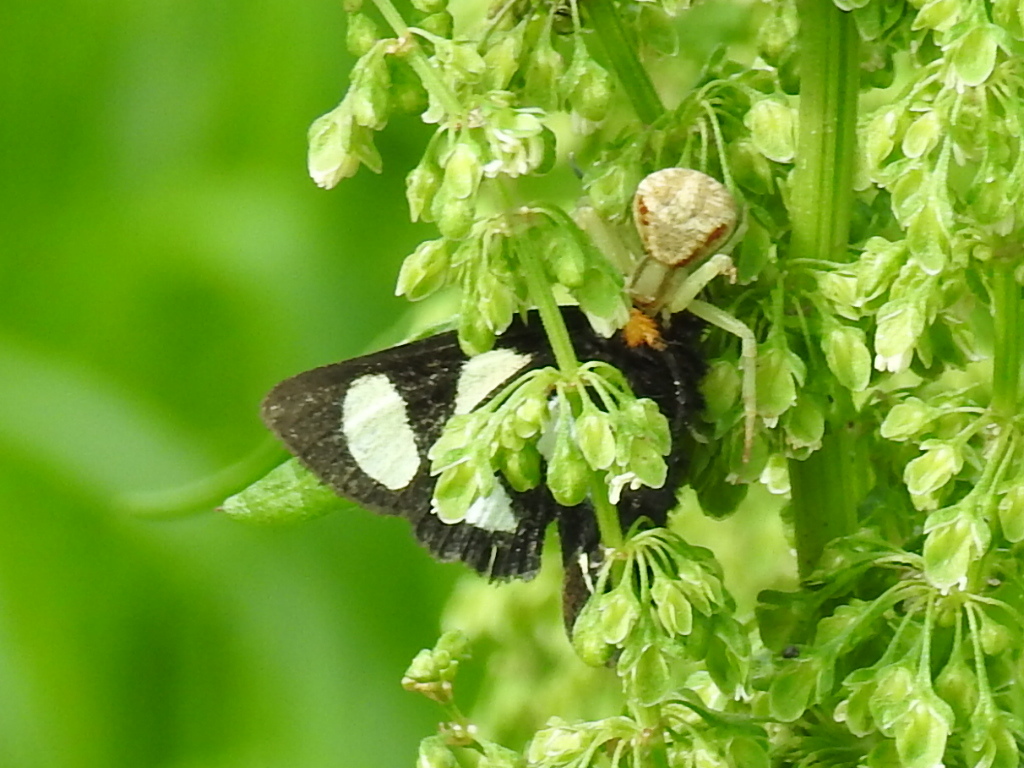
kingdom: Animalia
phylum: Arthropoda
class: Insecta
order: Lepidoptera
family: Noctuidae
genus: Alypia
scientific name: Alypia octomaculata
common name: Eight-spotted forester
